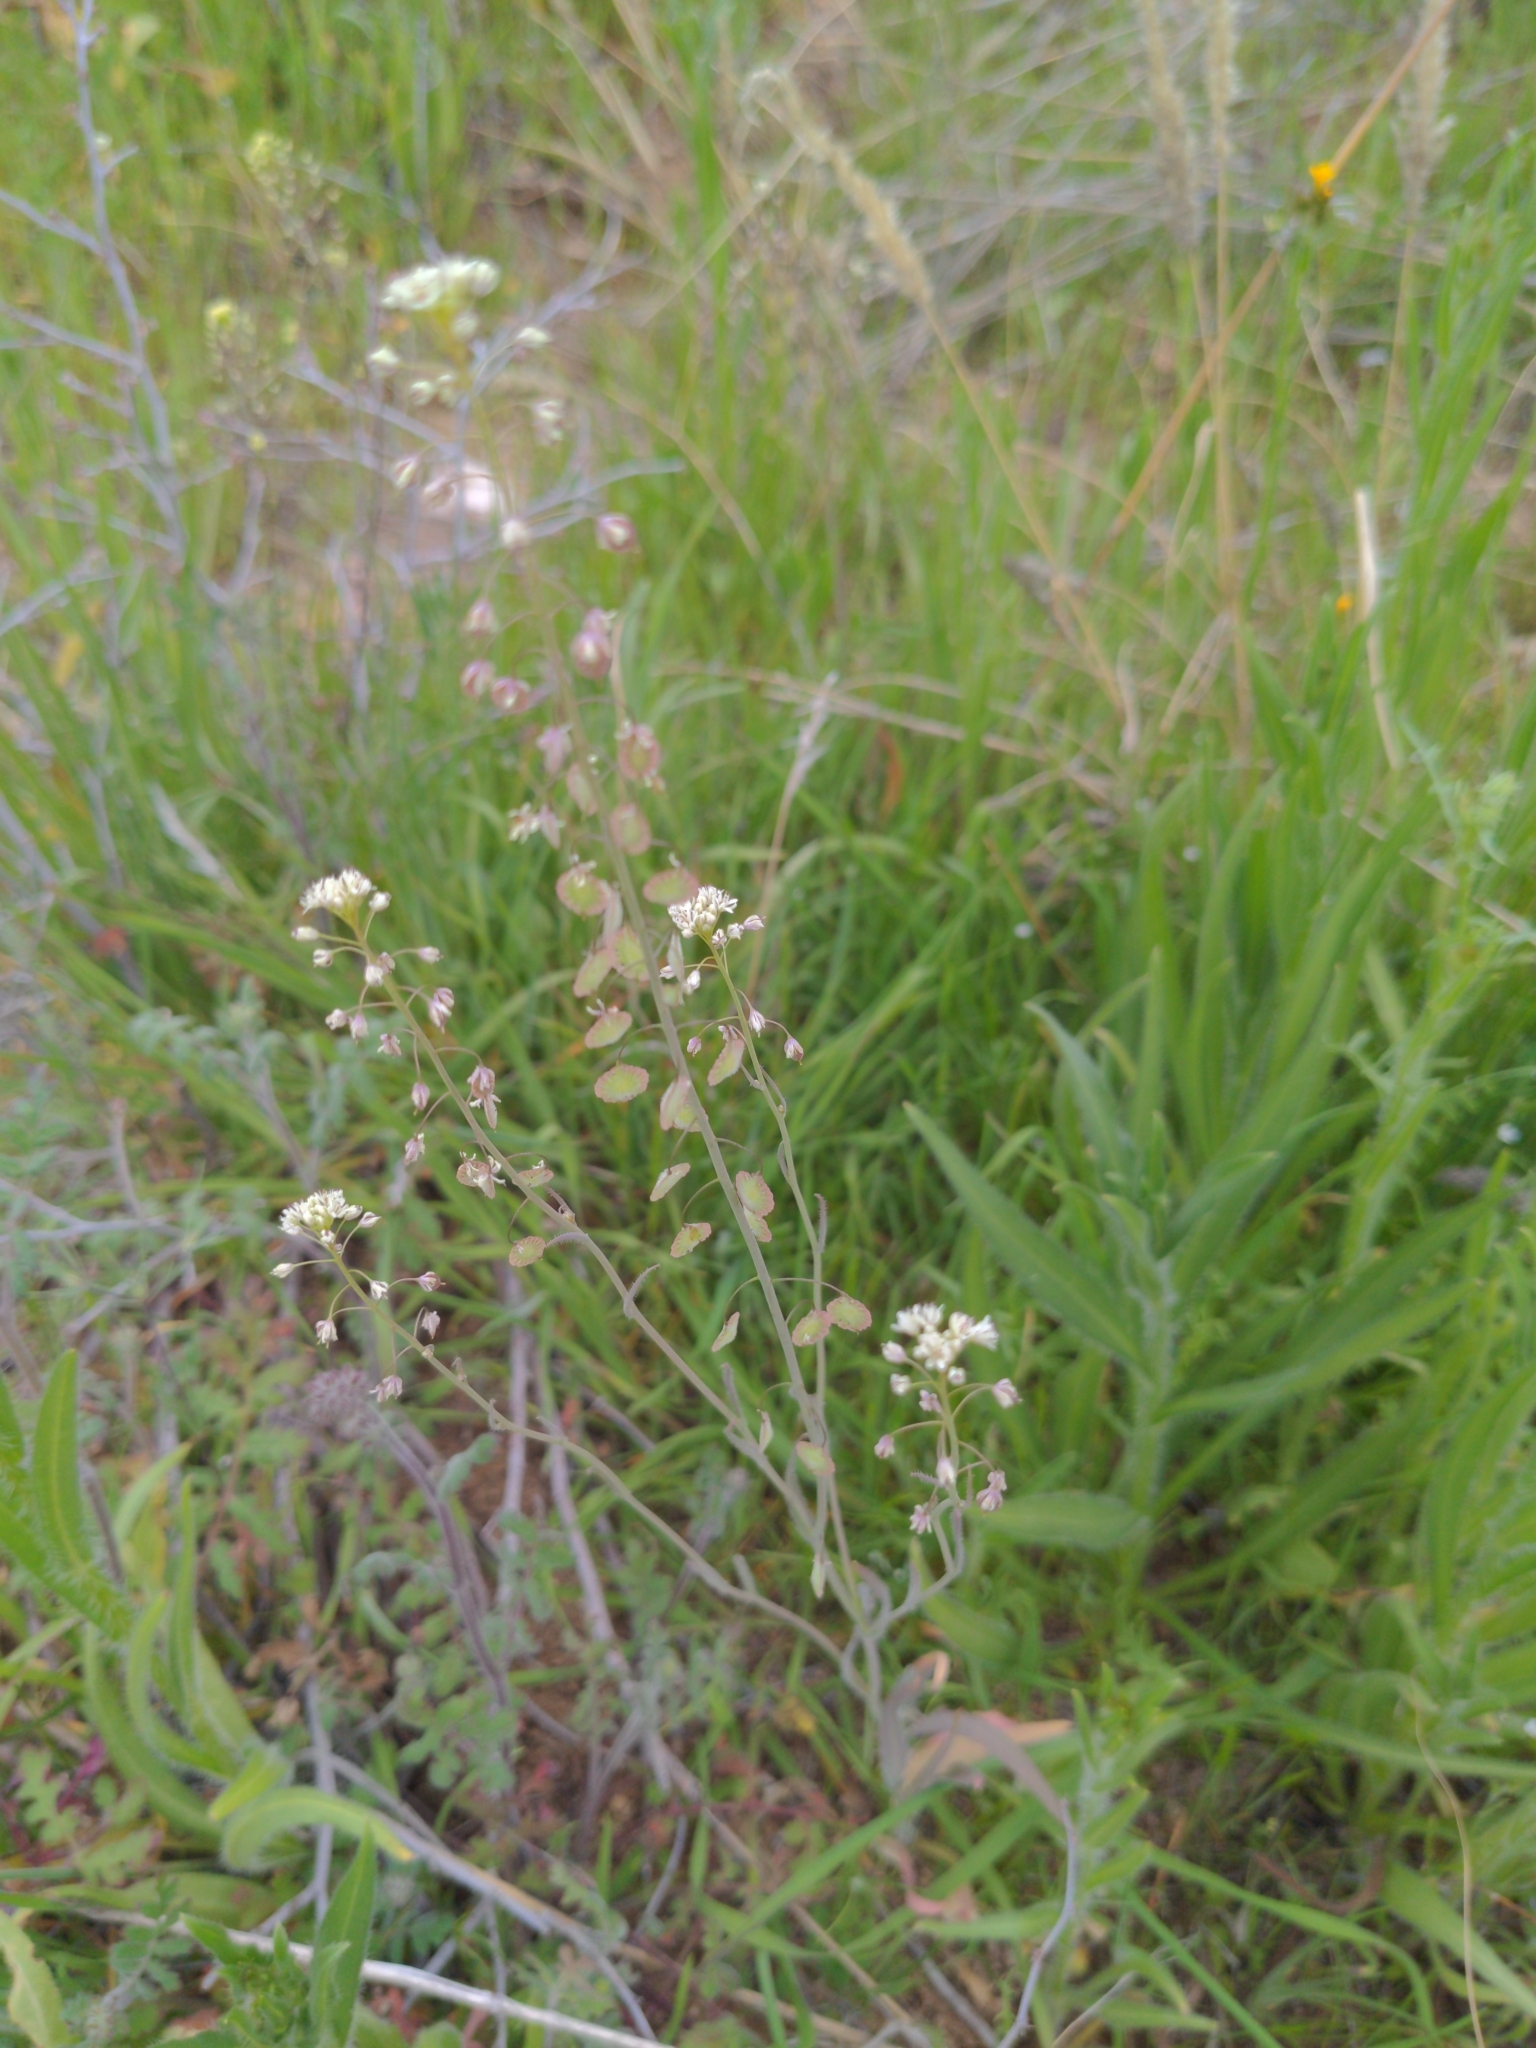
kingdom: Plantae
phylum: Tracheophyta
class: Magnoliopsida
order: Brassicales
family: Brassicaceae
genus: Thysanocarpus
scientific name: Thysanocarpus curvipes
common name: Sand fringepod
